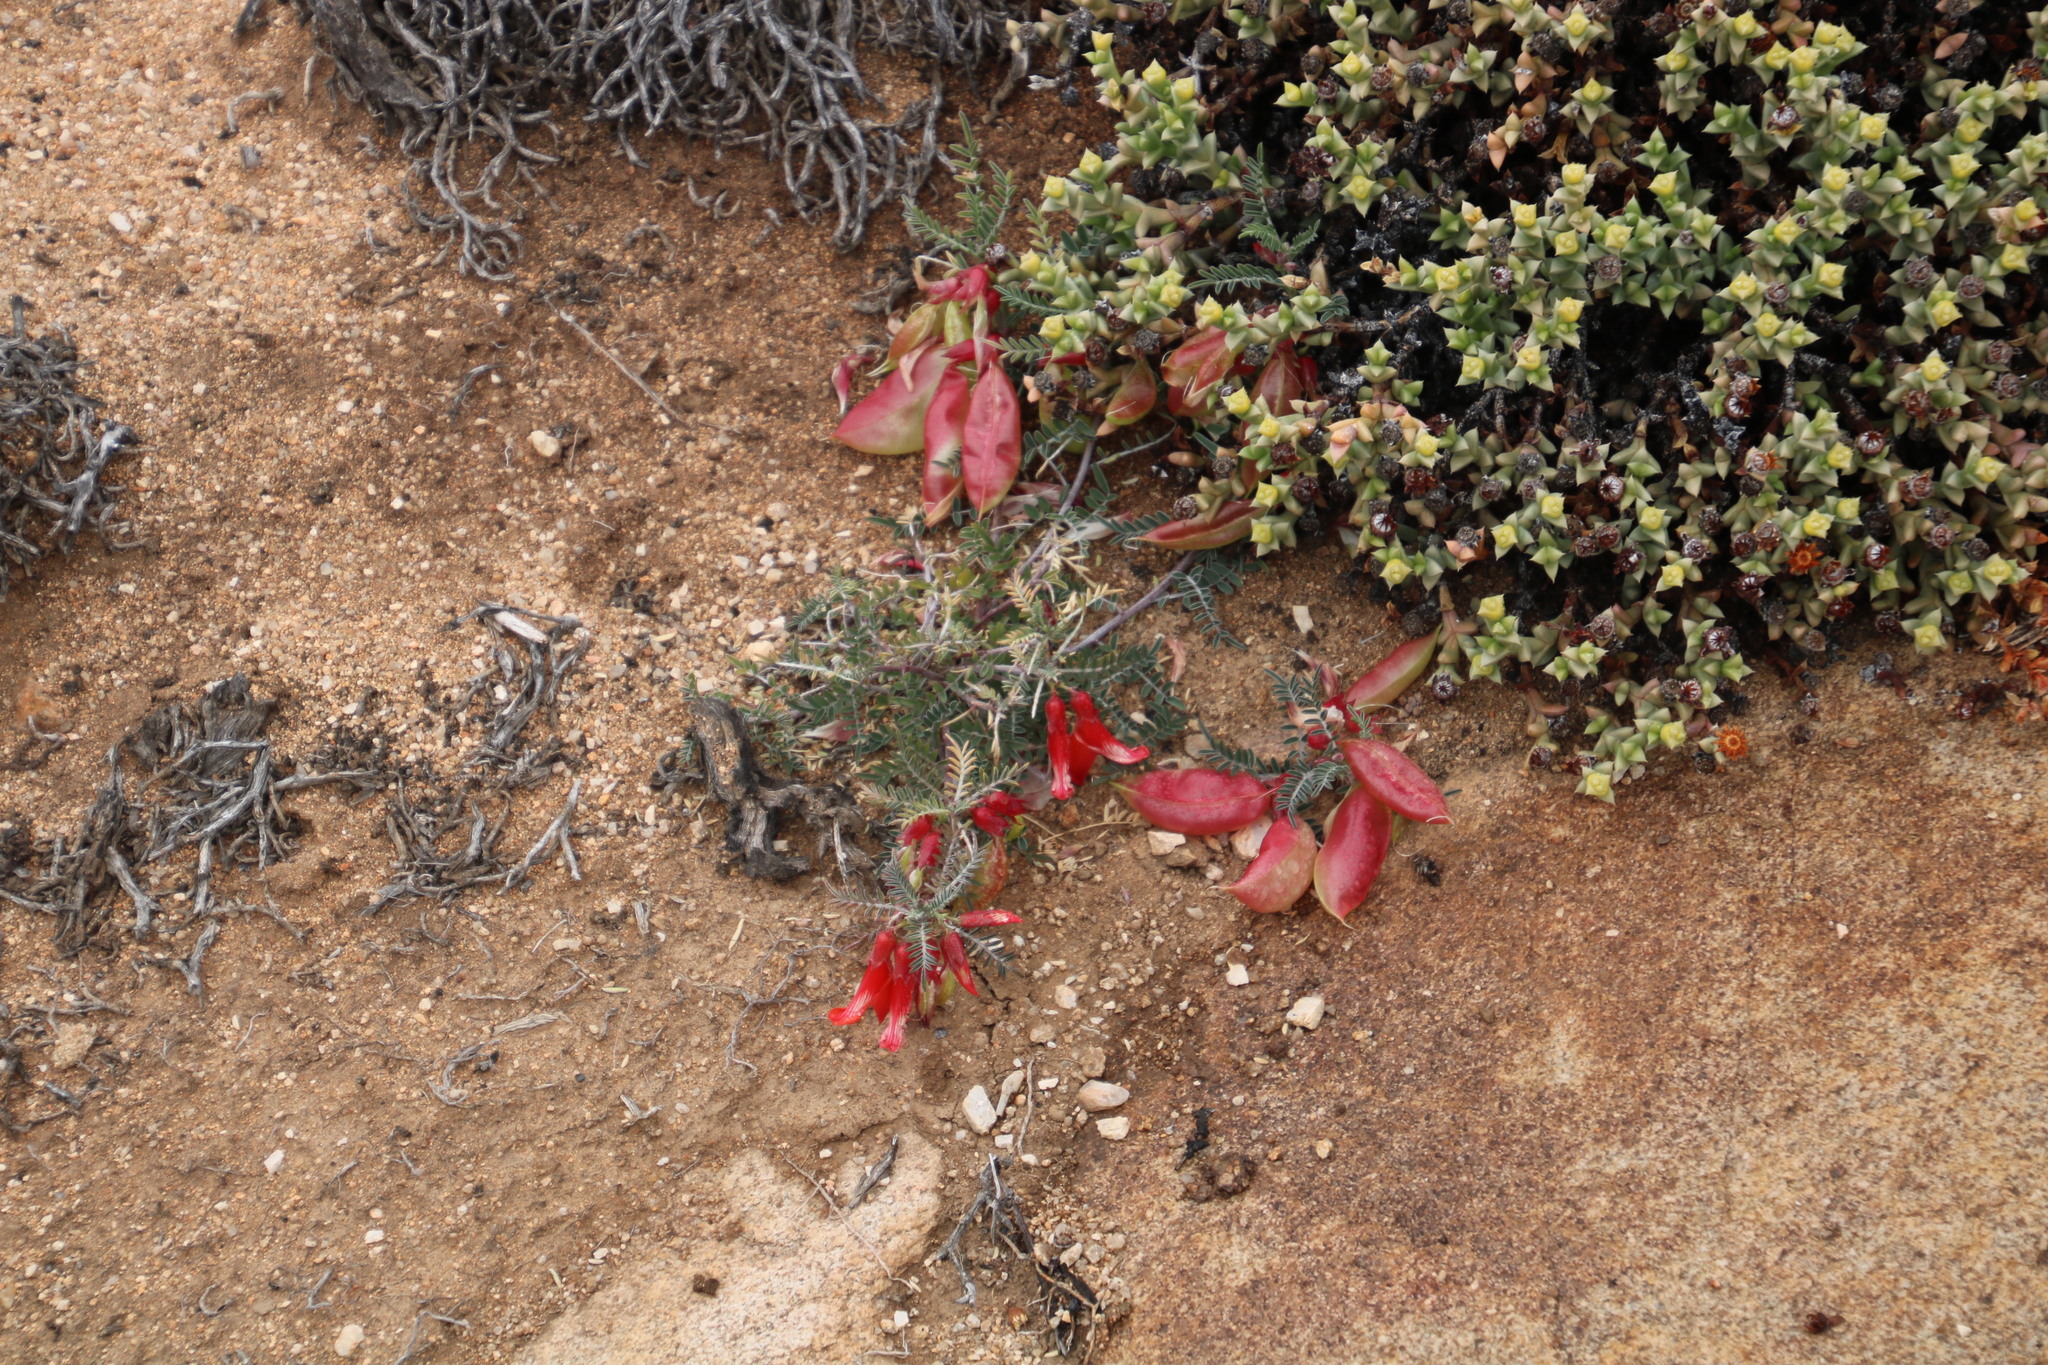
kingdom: Plantae
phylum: Tracheophyta
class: Magnoliopsida
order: Fabales
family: Fabaceae
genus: Lessertia
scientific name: Lessertia frutescens
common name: Balloon-pea
